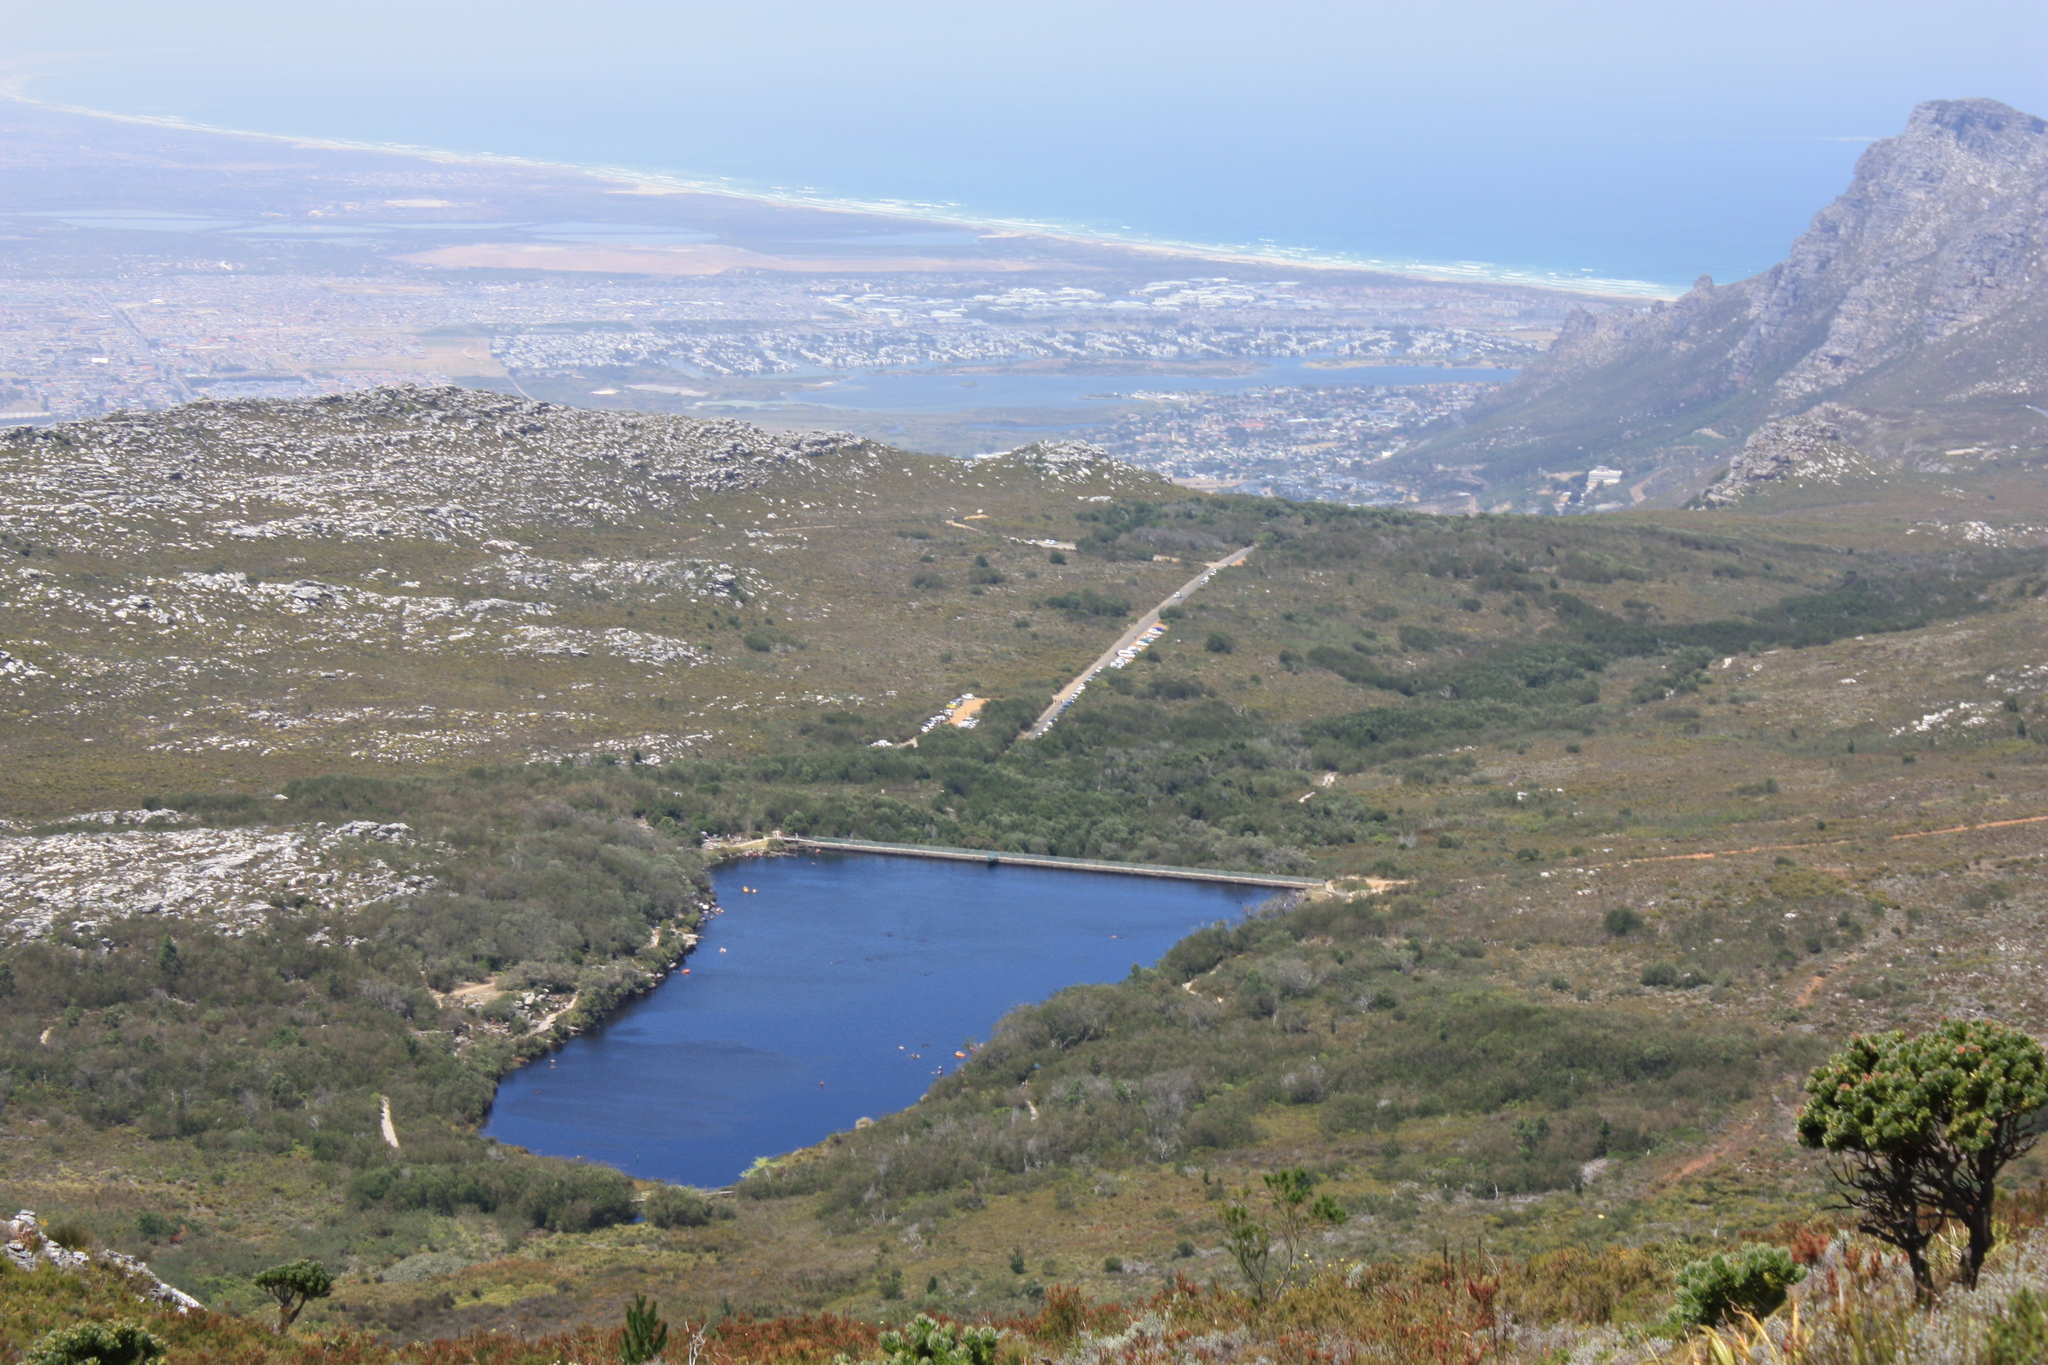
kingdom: Plantae
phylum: Tracheophyta
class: Magnoliopsida
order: Proteales
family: Proteaceae
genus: Leucospermum
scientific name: Leucospermum conocarpodendron
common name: Tree pincushion
